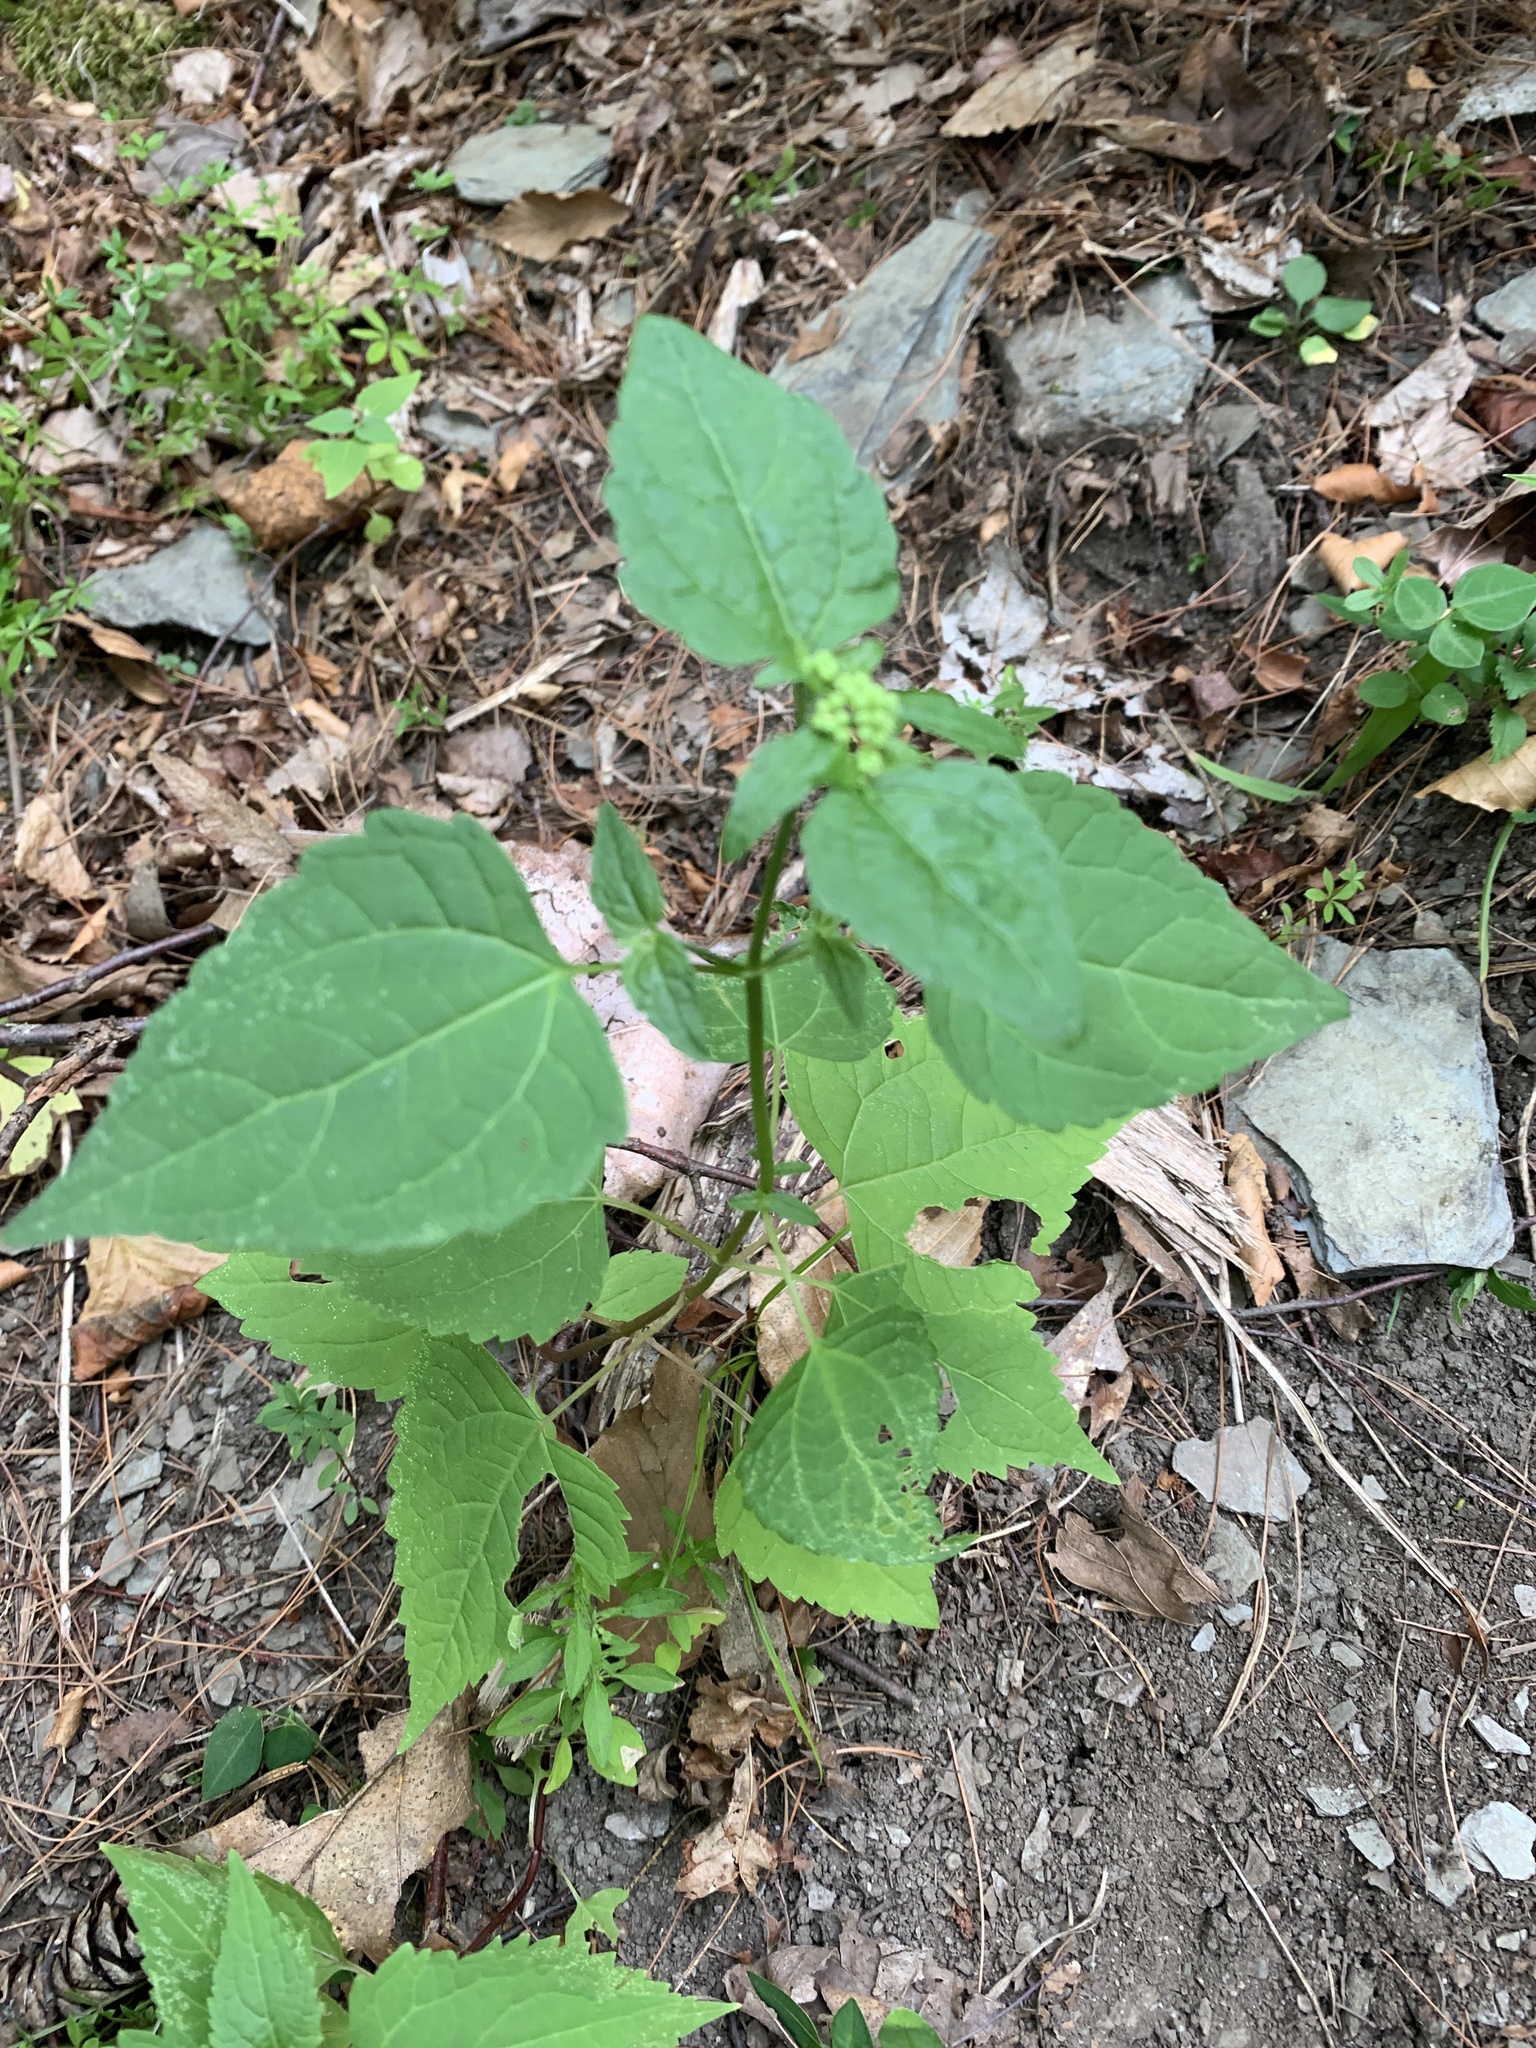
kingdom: Plantae
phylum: Tracheophyta
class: Magnoliopsida
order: Asterales
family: Asteraceae
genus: Ageratina
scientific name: Ageratina altissima
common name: White snakeroot
